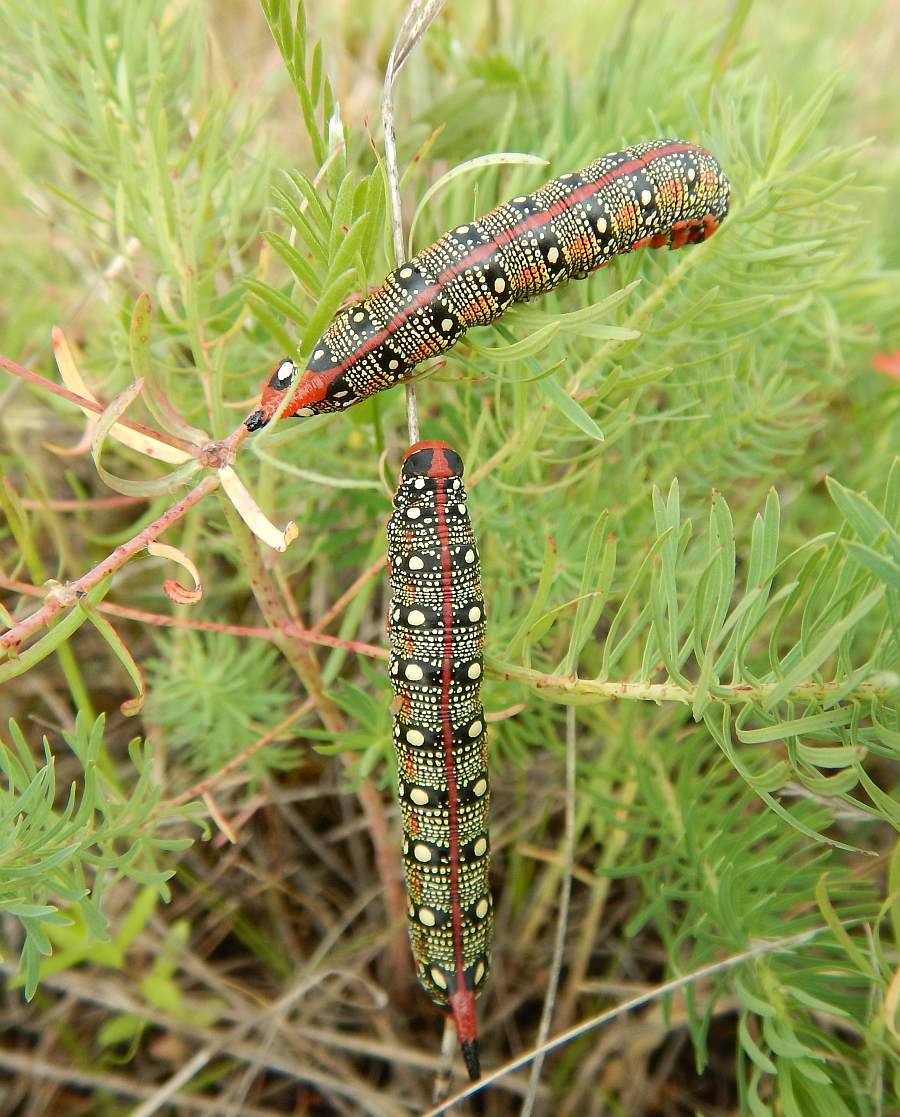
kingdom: Animalia
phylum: Arthropoda
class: Insecta
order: Lepidoptera
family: Sphingidae
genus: Hyles
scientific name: Hyles euphorbiae
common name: Spurge hawk-moth
